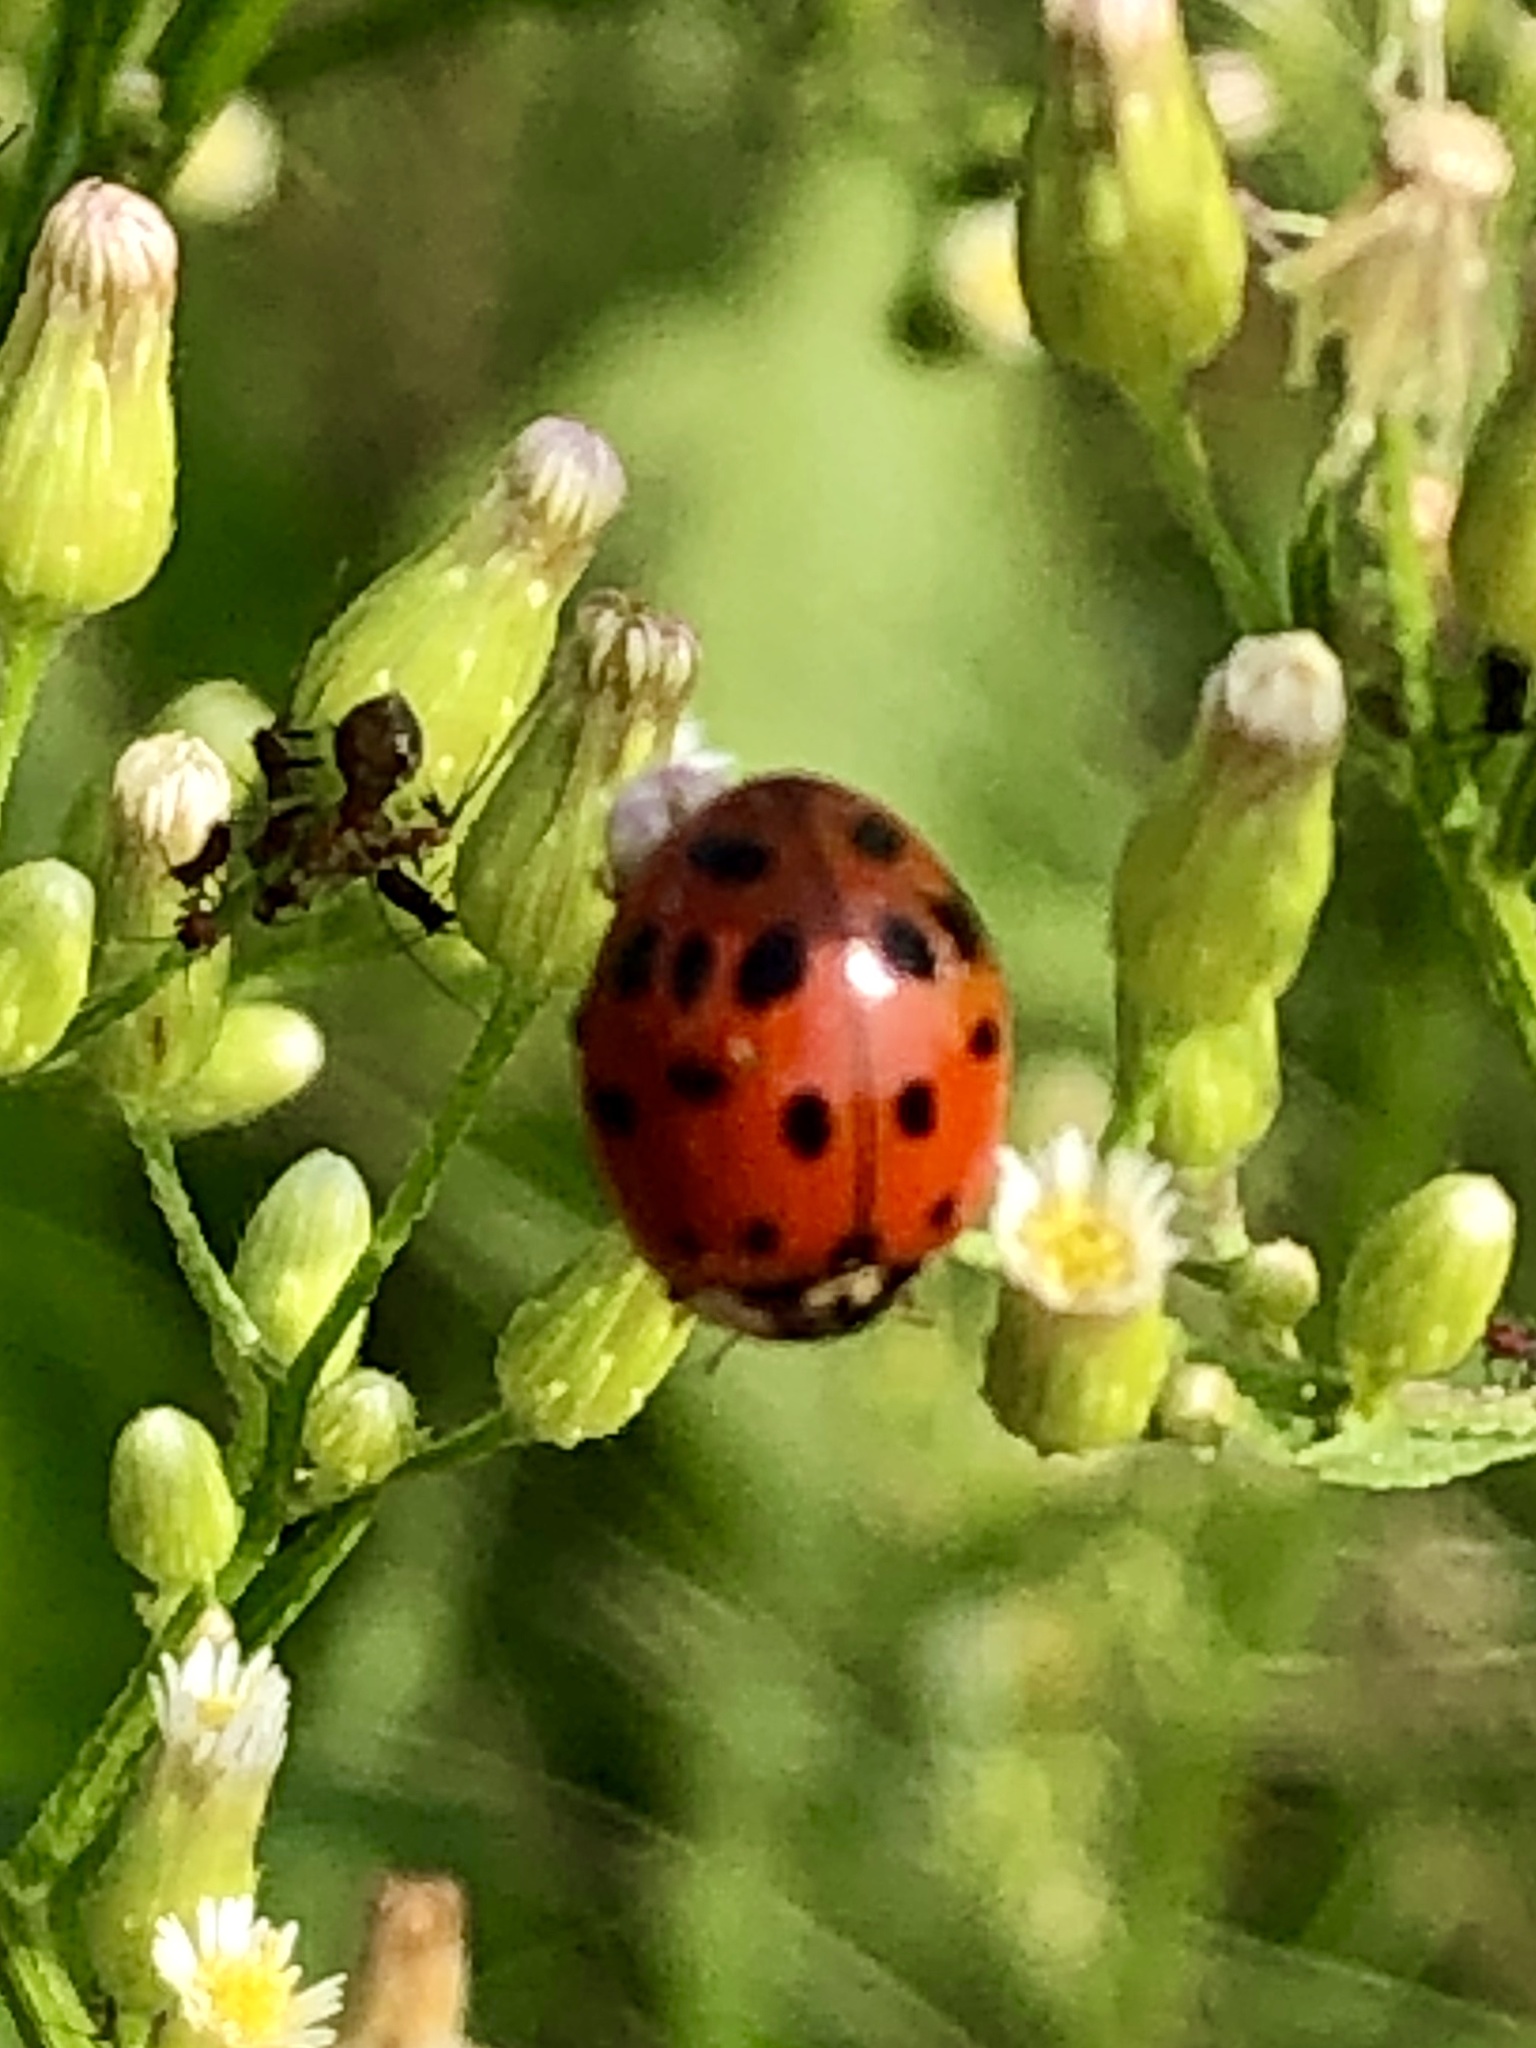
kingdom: Animalia
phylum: Arthropoda
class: Insecta
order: Coleoptera
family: Coccinellidae
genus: Harmonia
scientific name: Harmonia axyridis
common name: Harlequin ladybird
